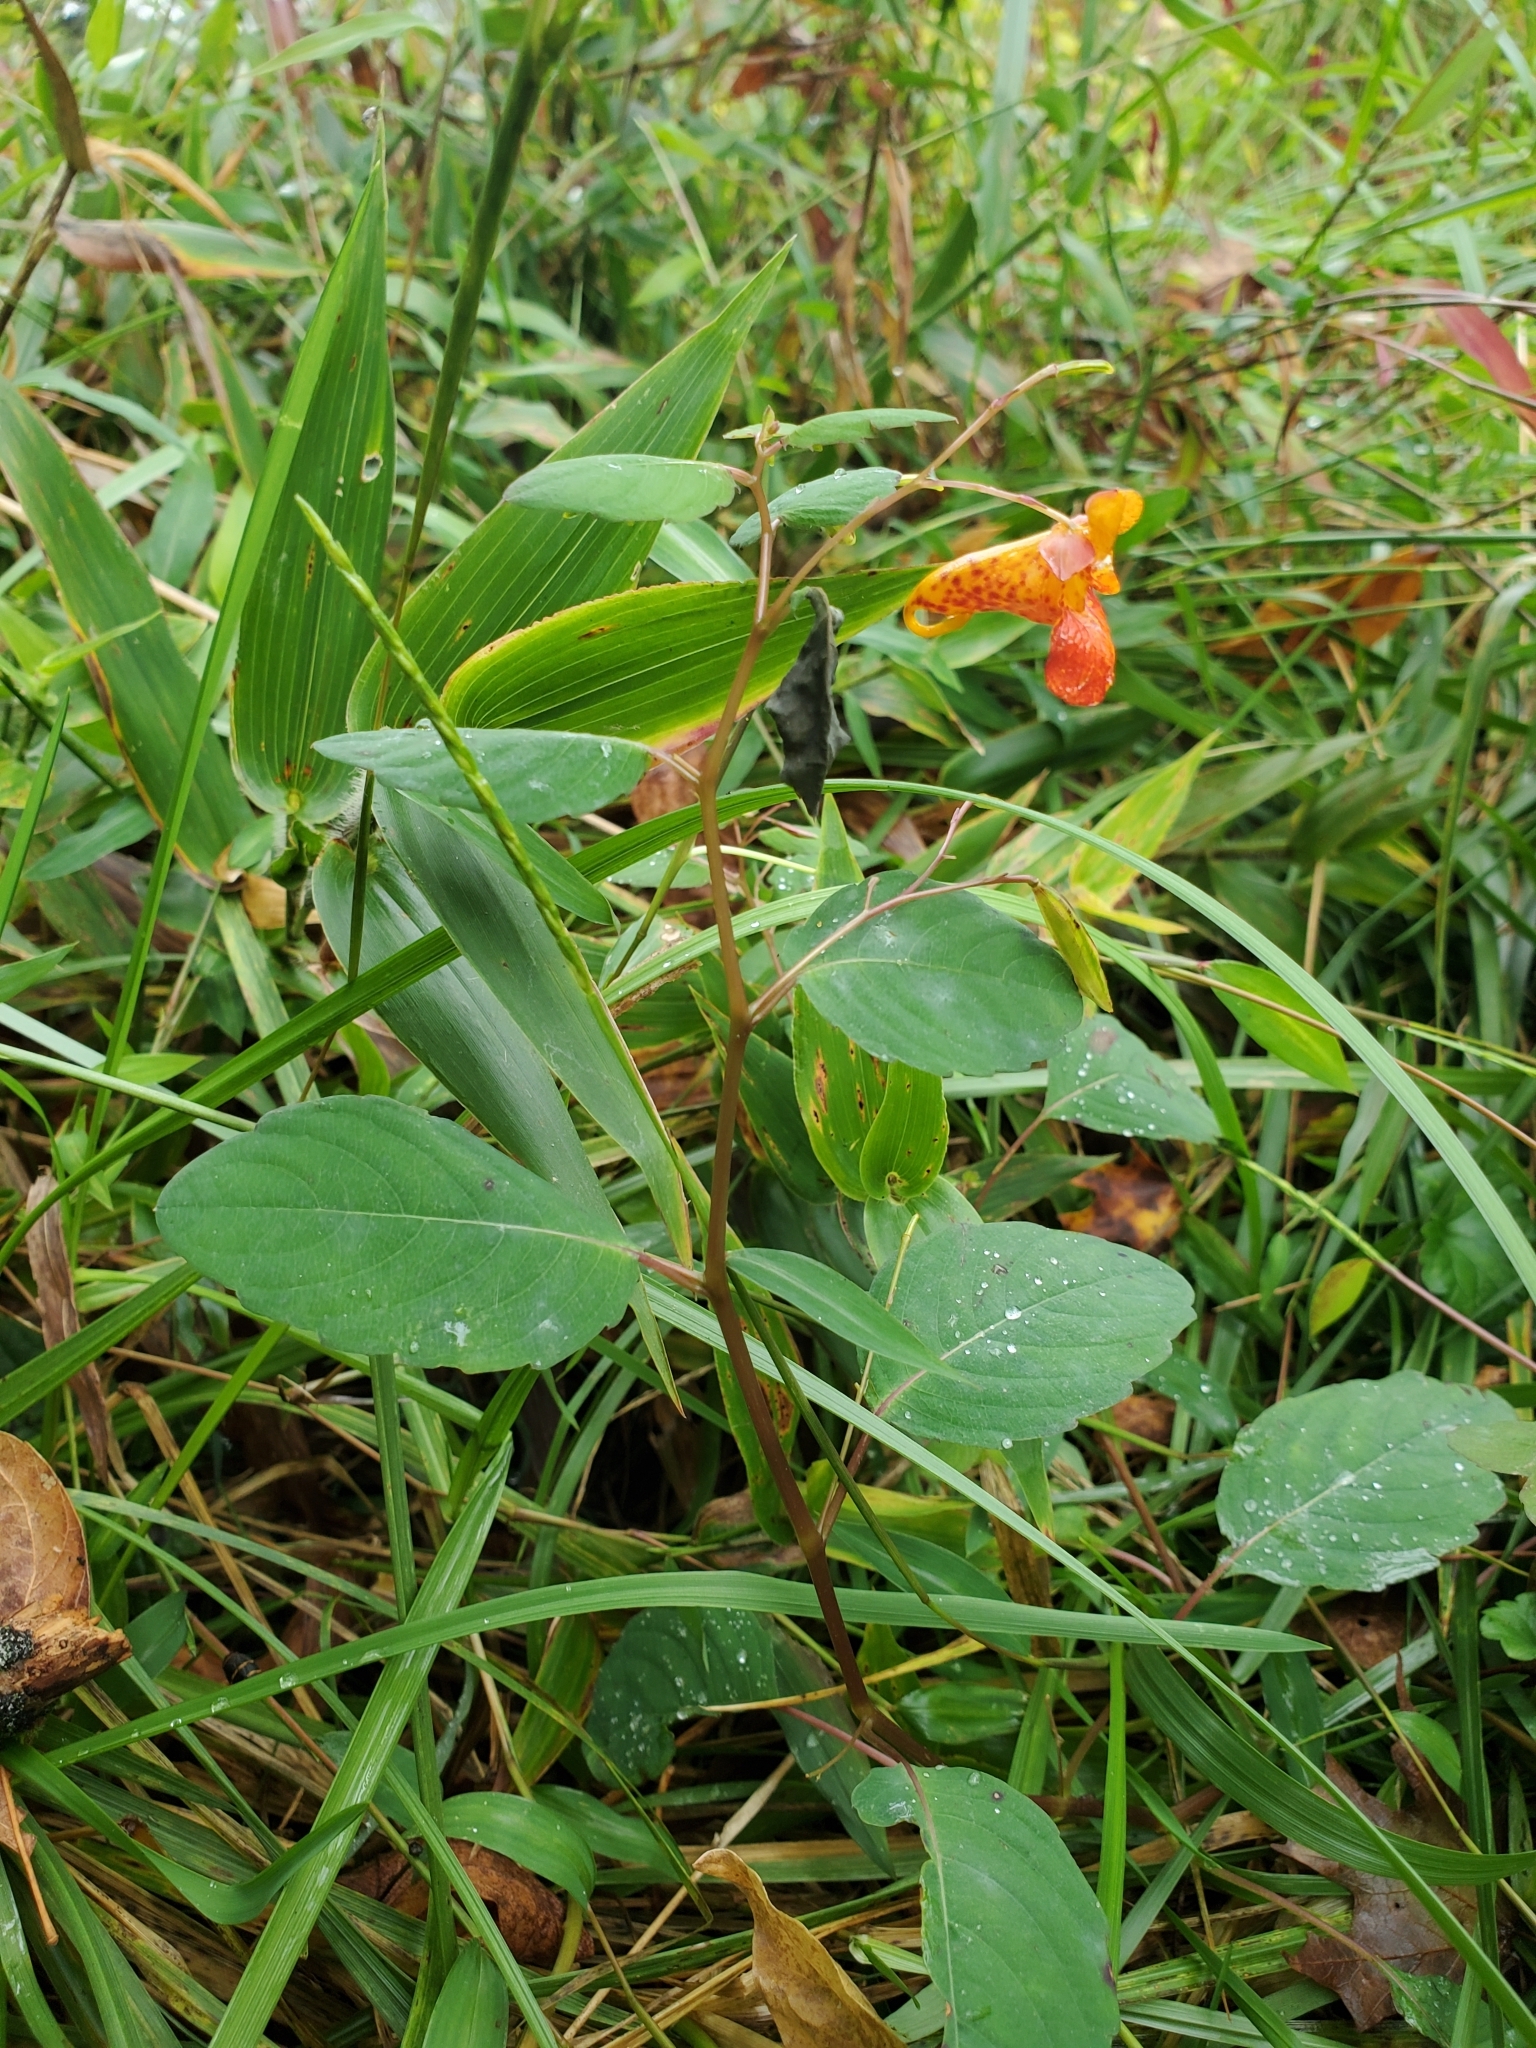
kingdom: Plantae
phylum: Tracheophyta
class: Magnoliopsida
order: Ericales
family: Balsaminaceae
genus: Impatiens
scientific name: Impatiens capensis
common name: Orange balsam
